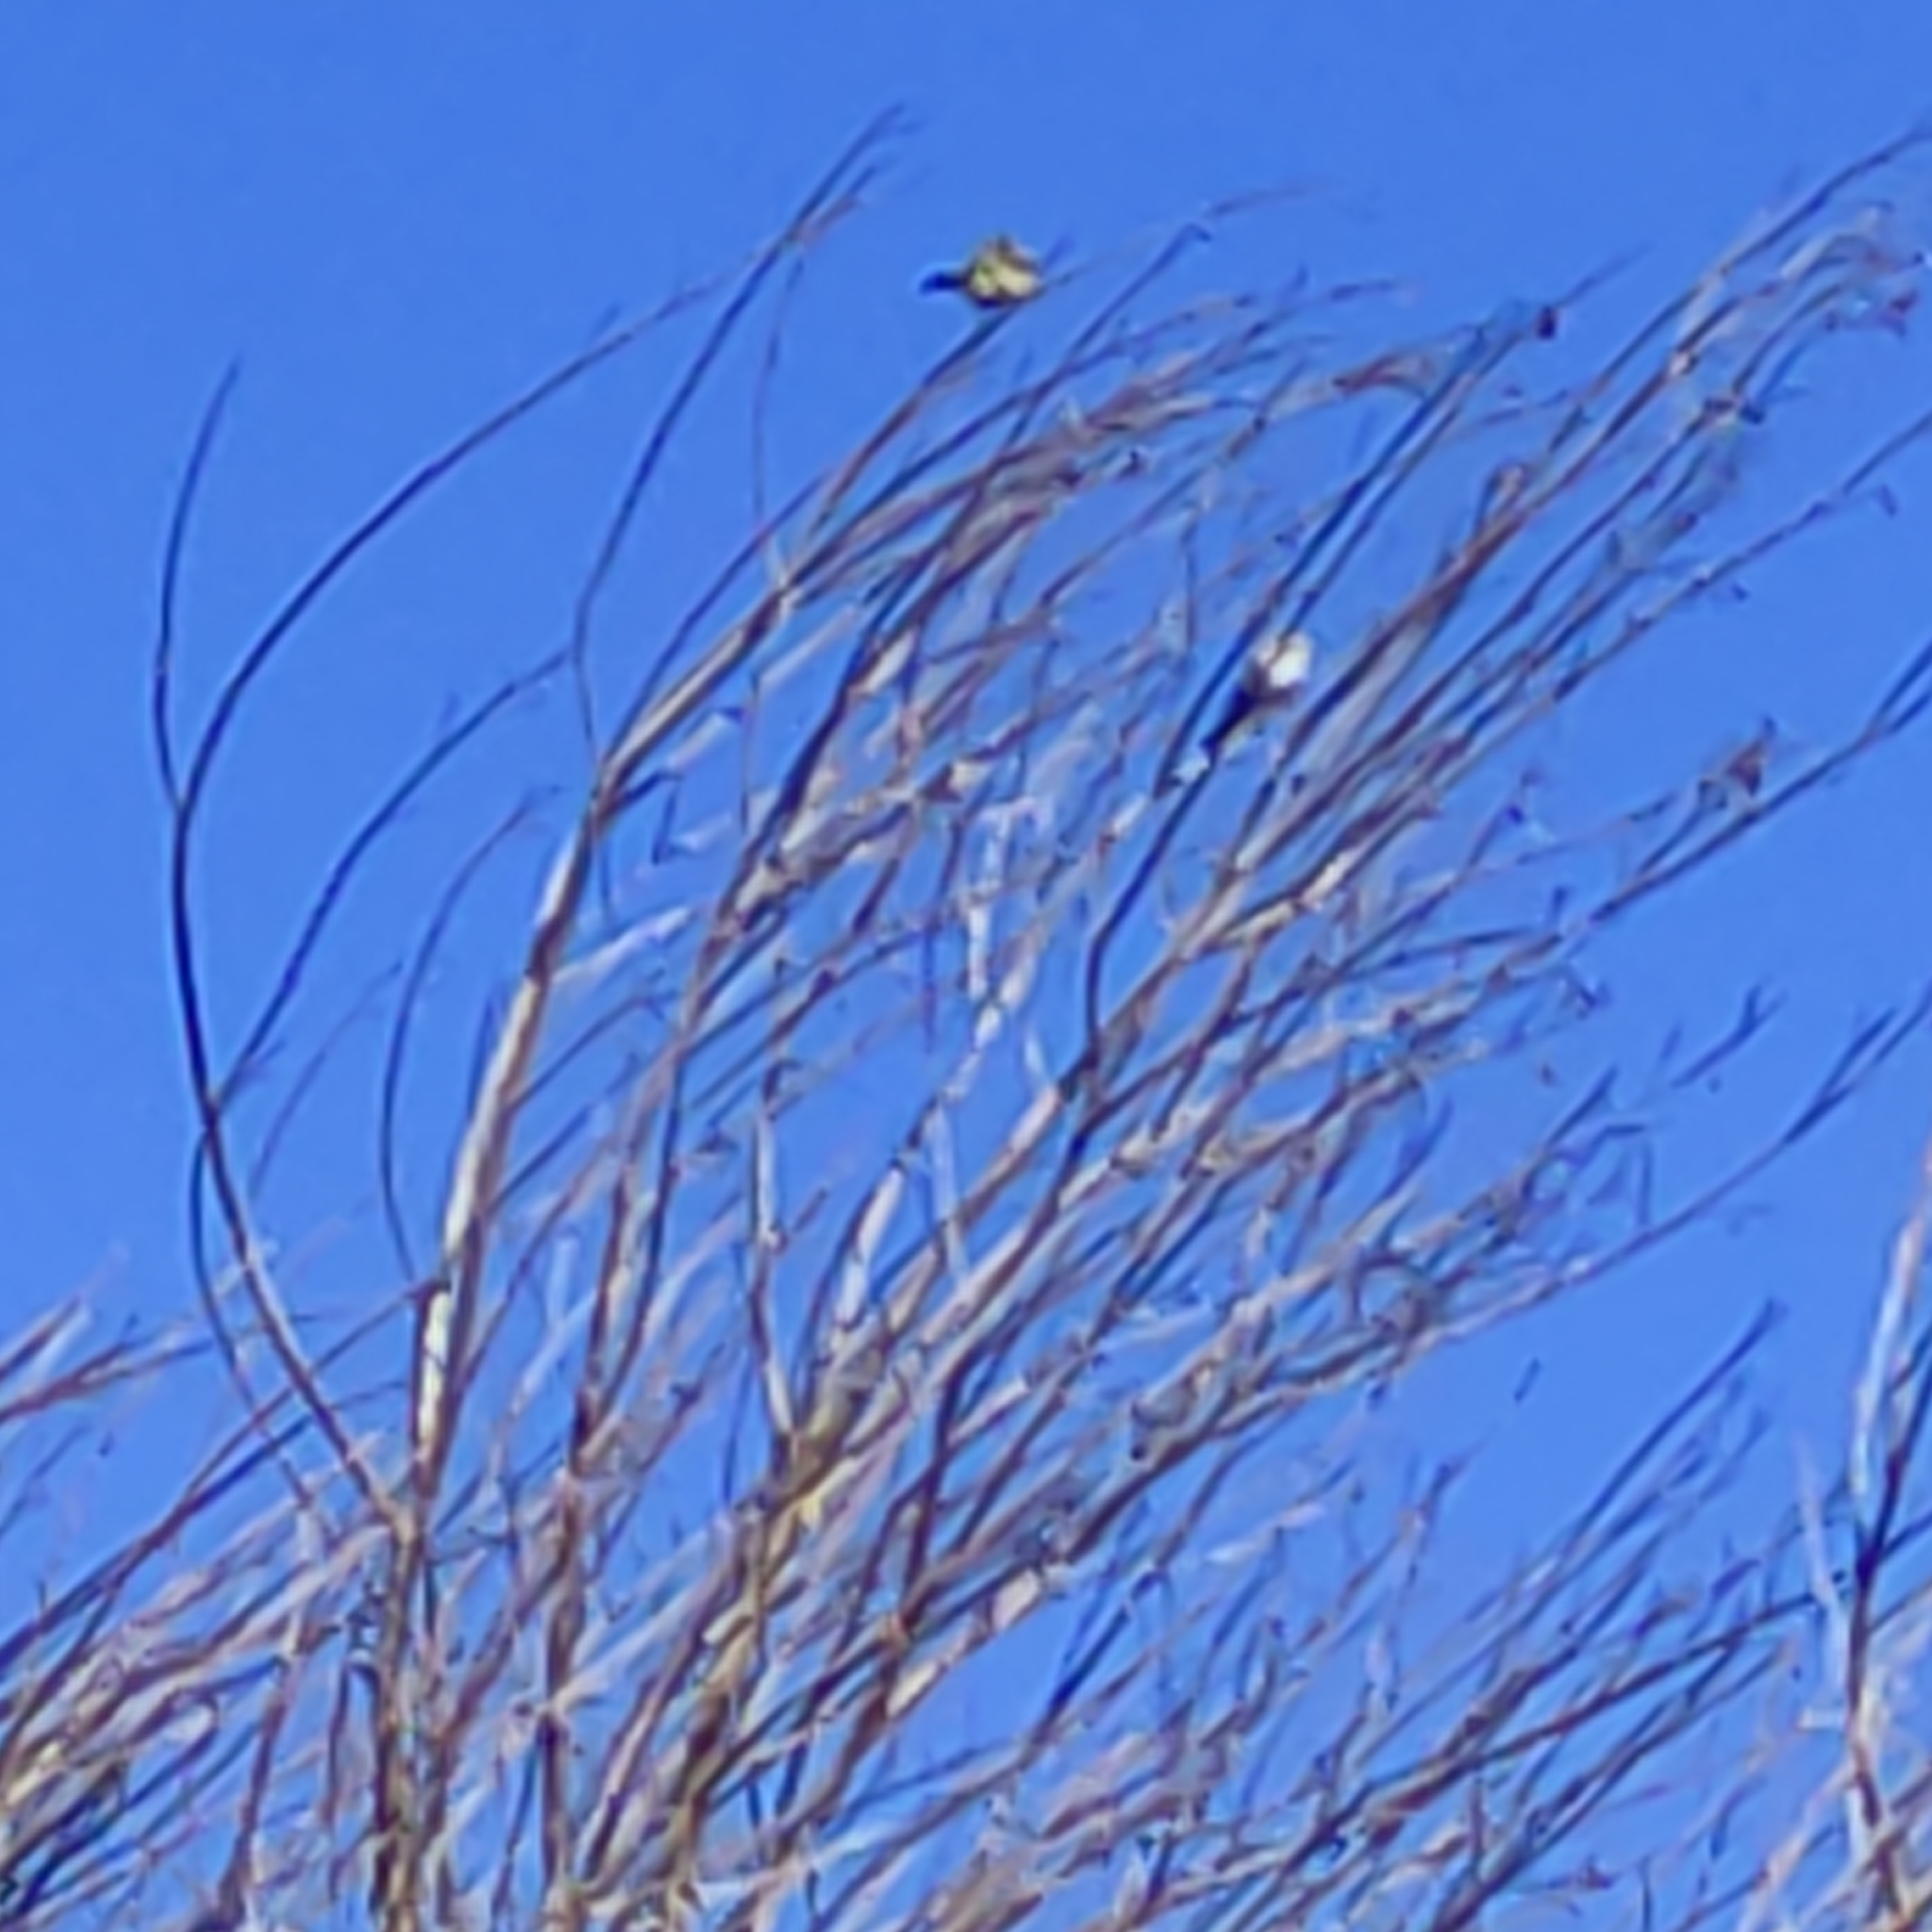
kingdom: Animalia
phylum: Chordata
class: Aves
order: Passeriformes
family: Zosteropidae
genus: Zosterops
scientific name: Zosterops lateralis
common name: Silvereye
